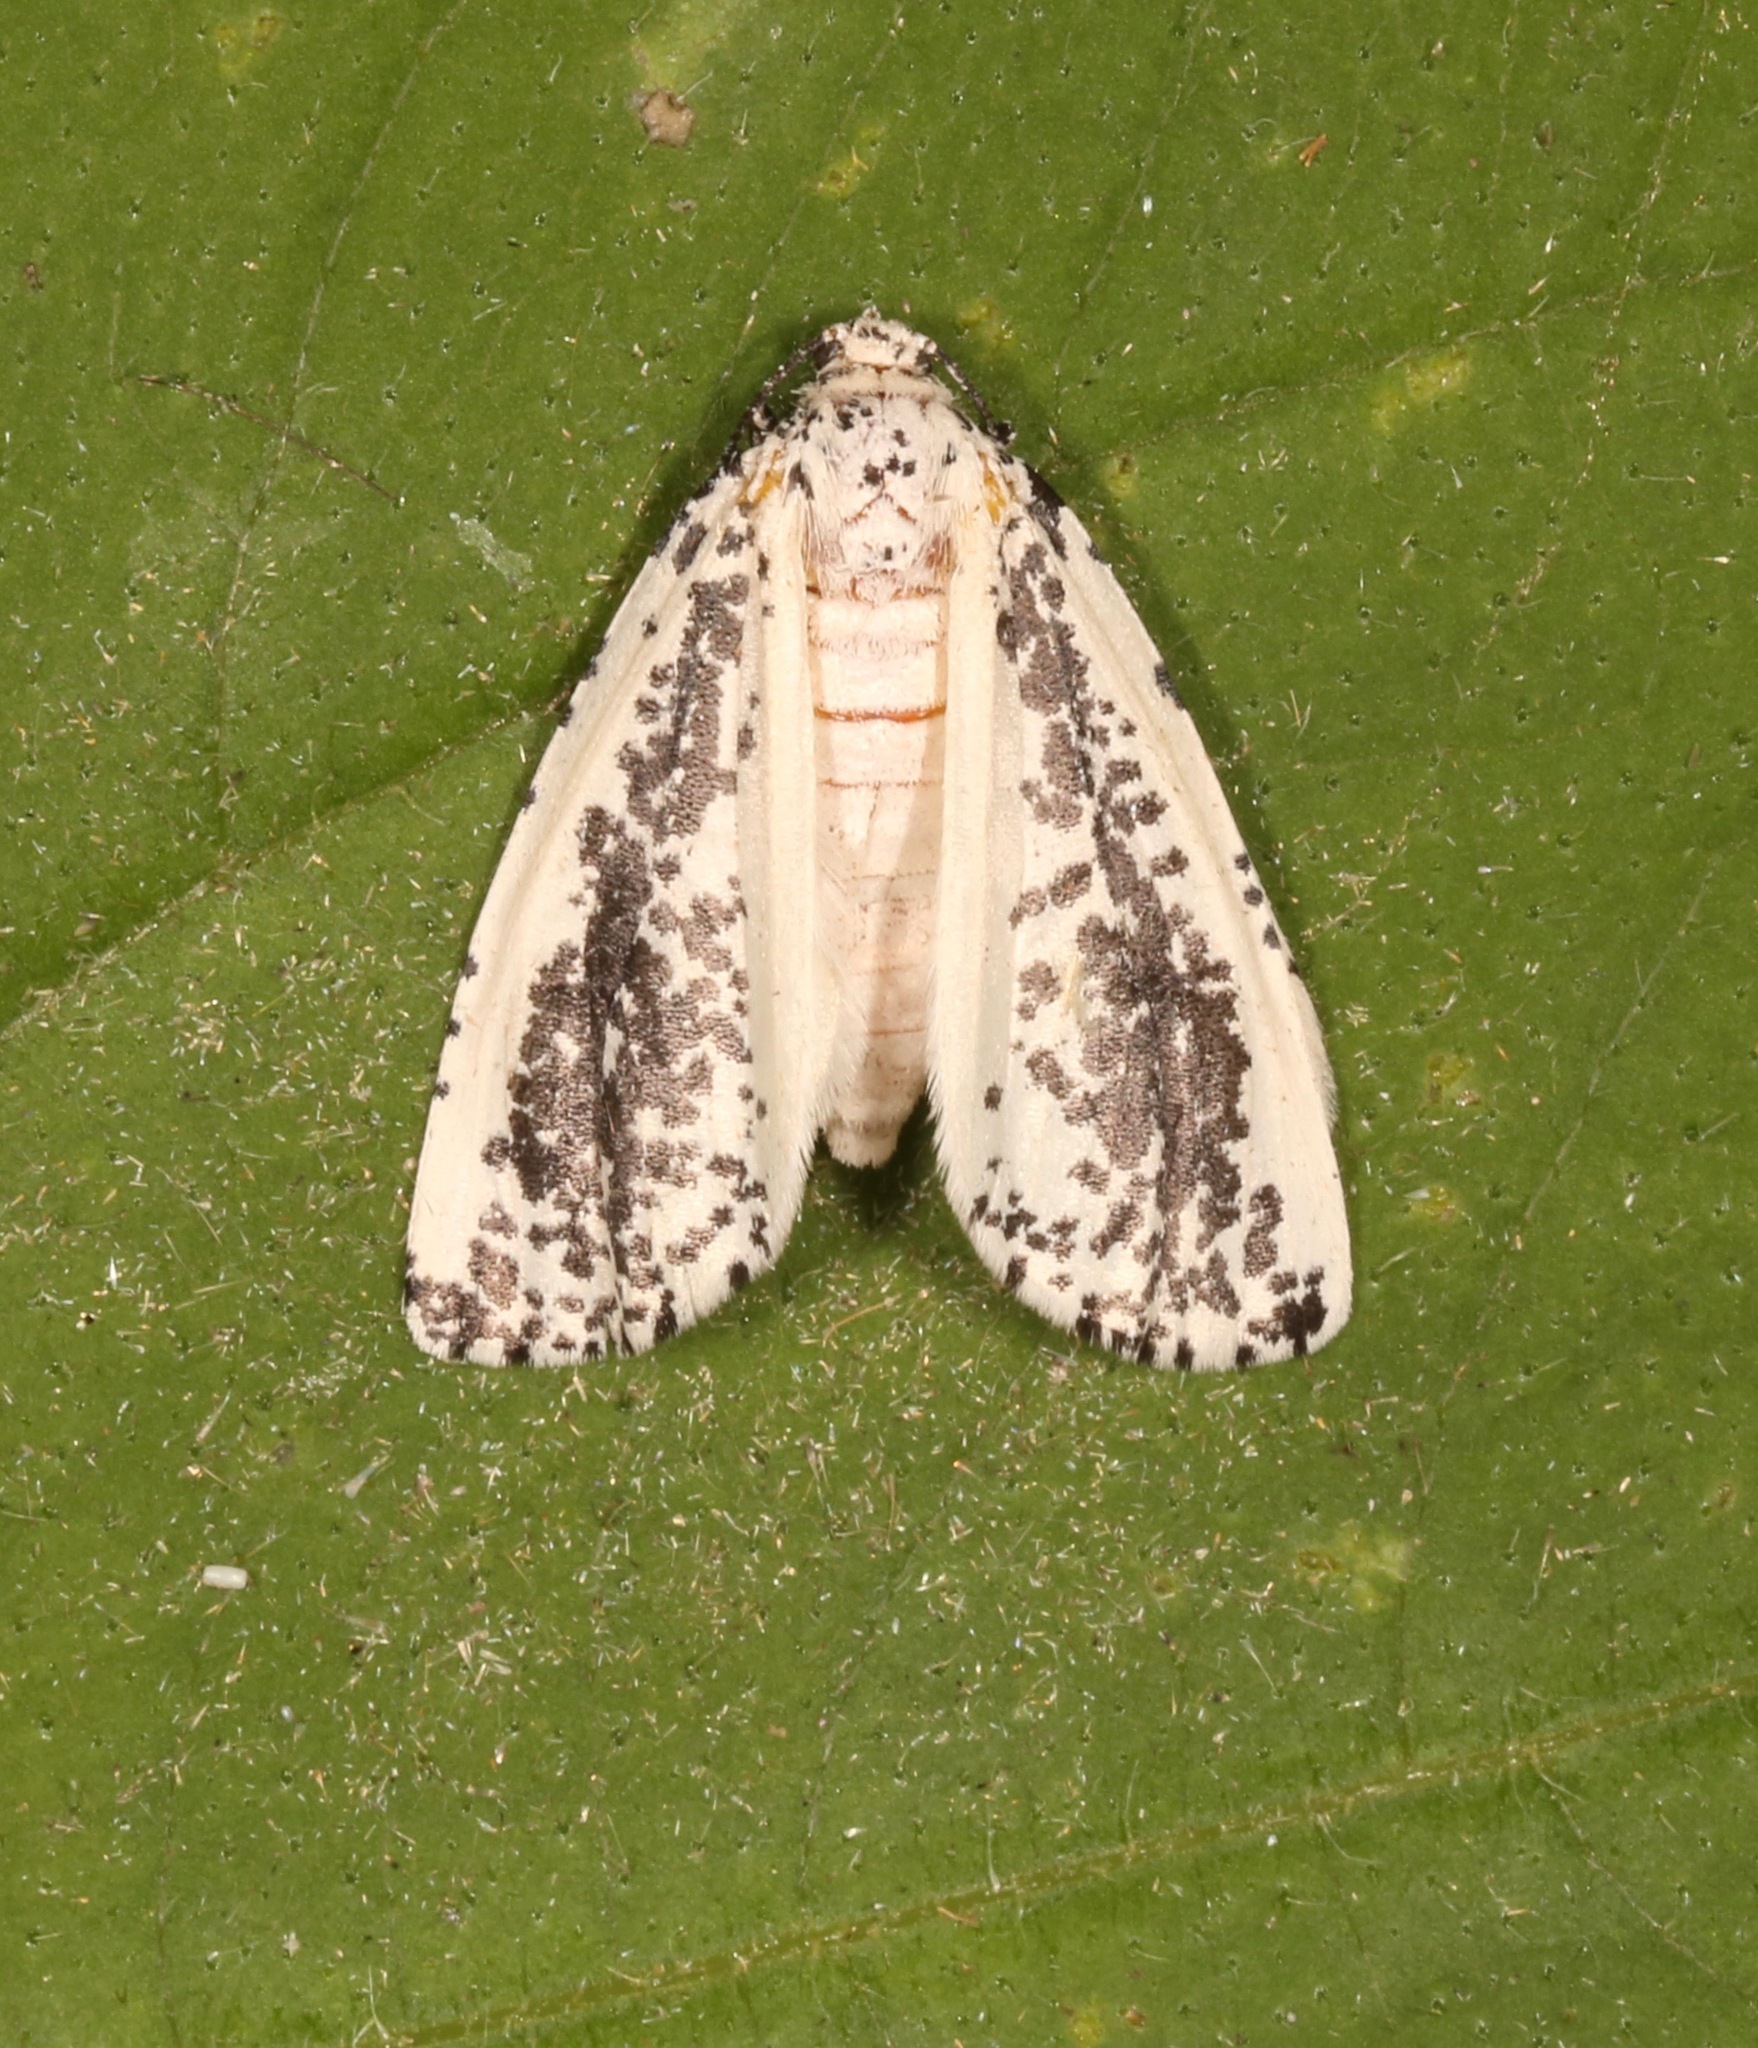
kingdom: Animalia
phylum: Arthropoda
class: Insecta
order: Lepidoptera
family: Geometridae
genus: Eucaterva
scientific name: Eucaterva variaria
